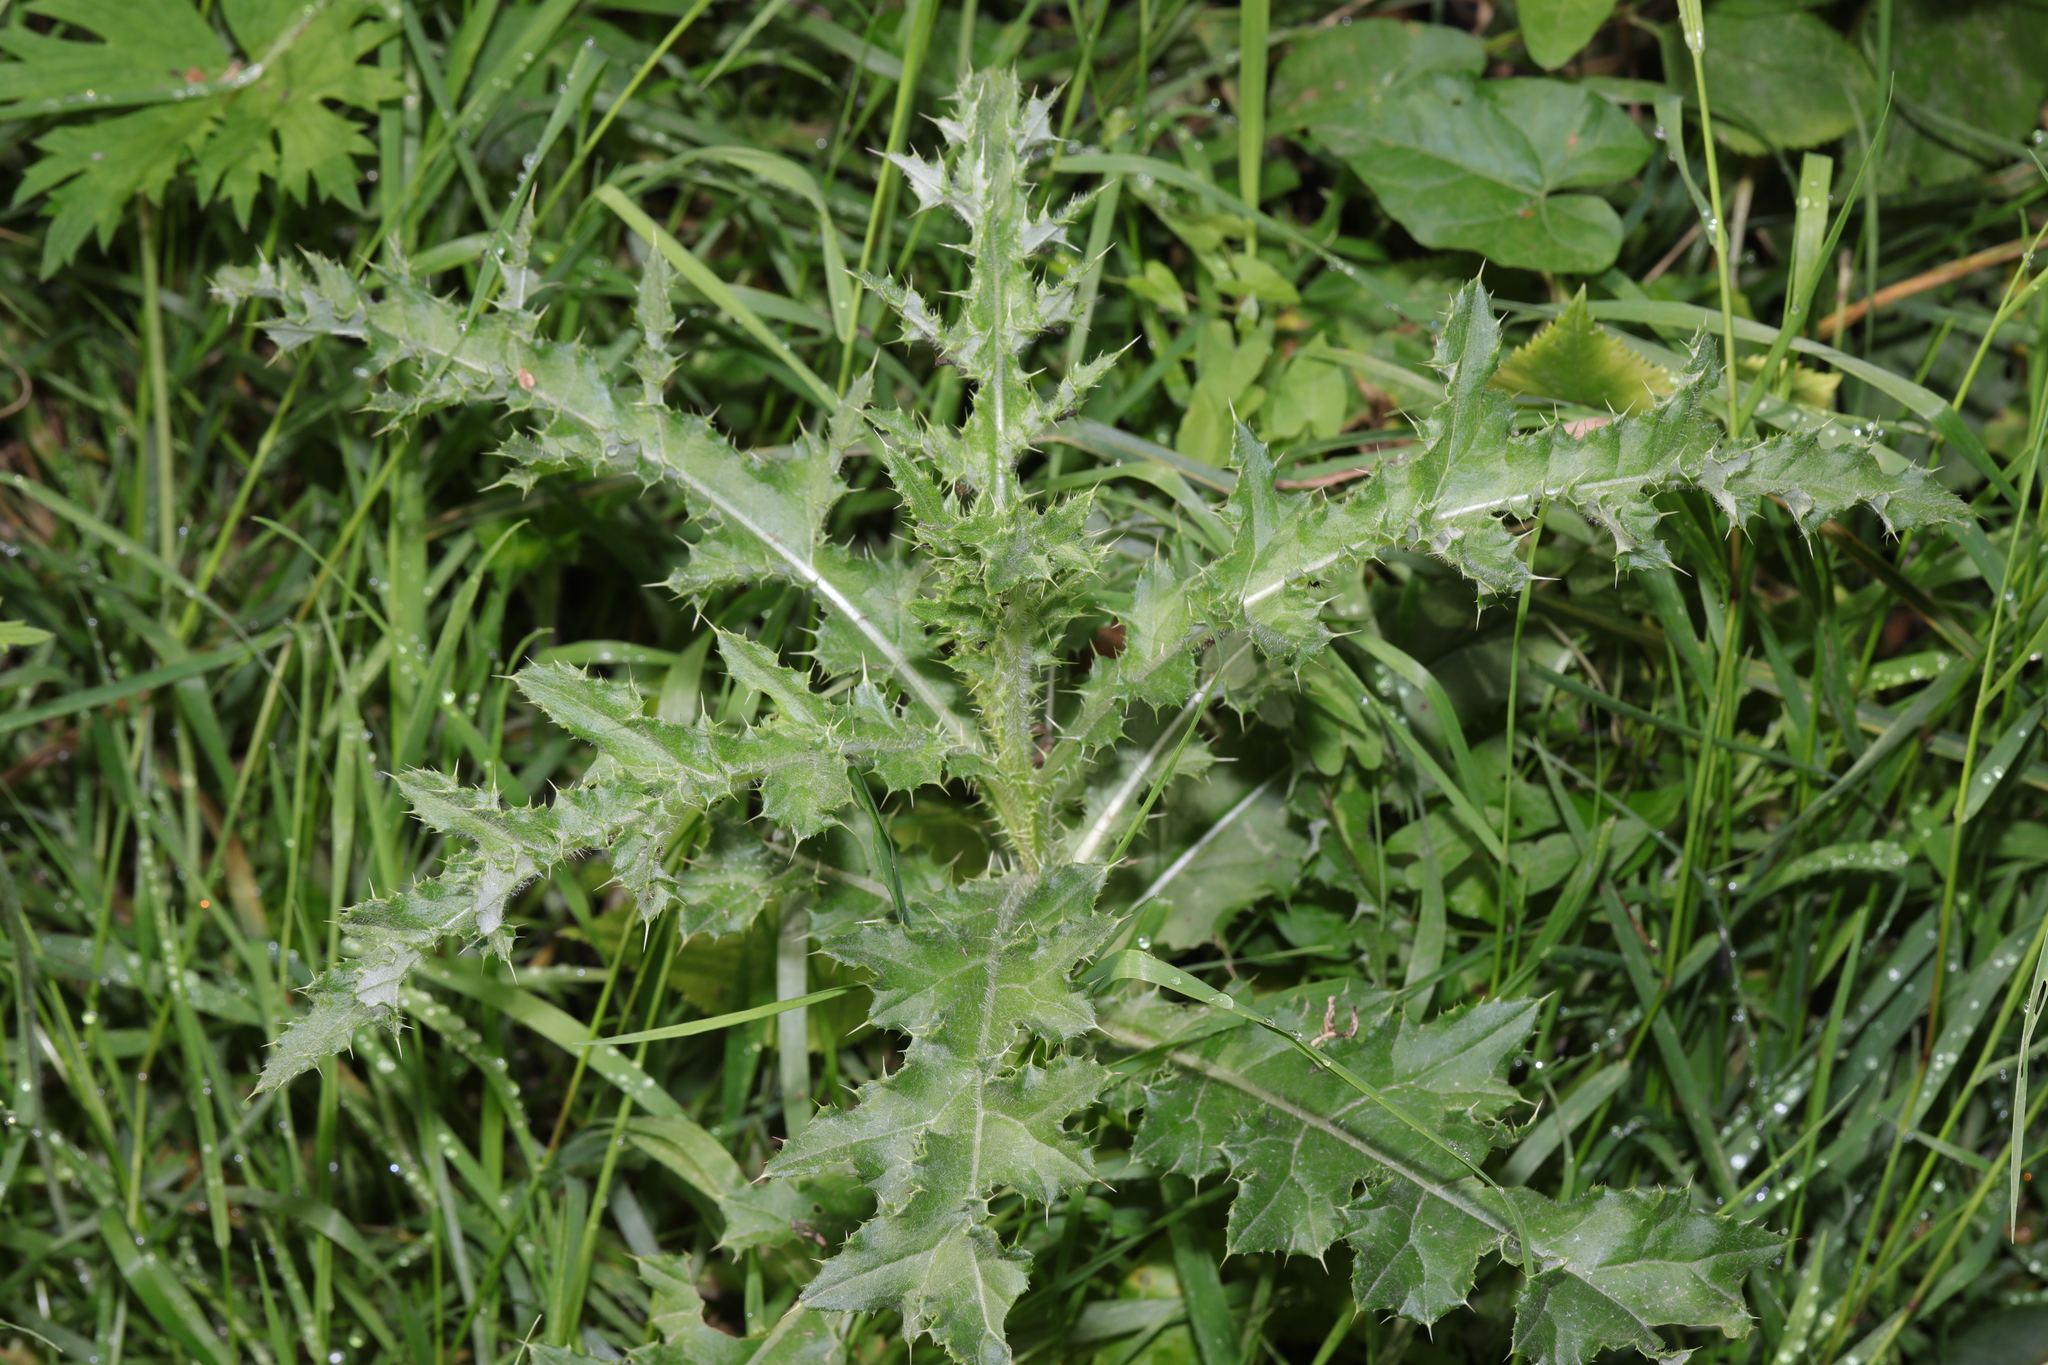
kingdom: Plantae
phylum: Tracheophyta
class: Magnoliopsida
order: Asterales
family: Asteraceae
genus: Cirsium
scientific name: Cirsium arvense
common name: Creeping thistle
